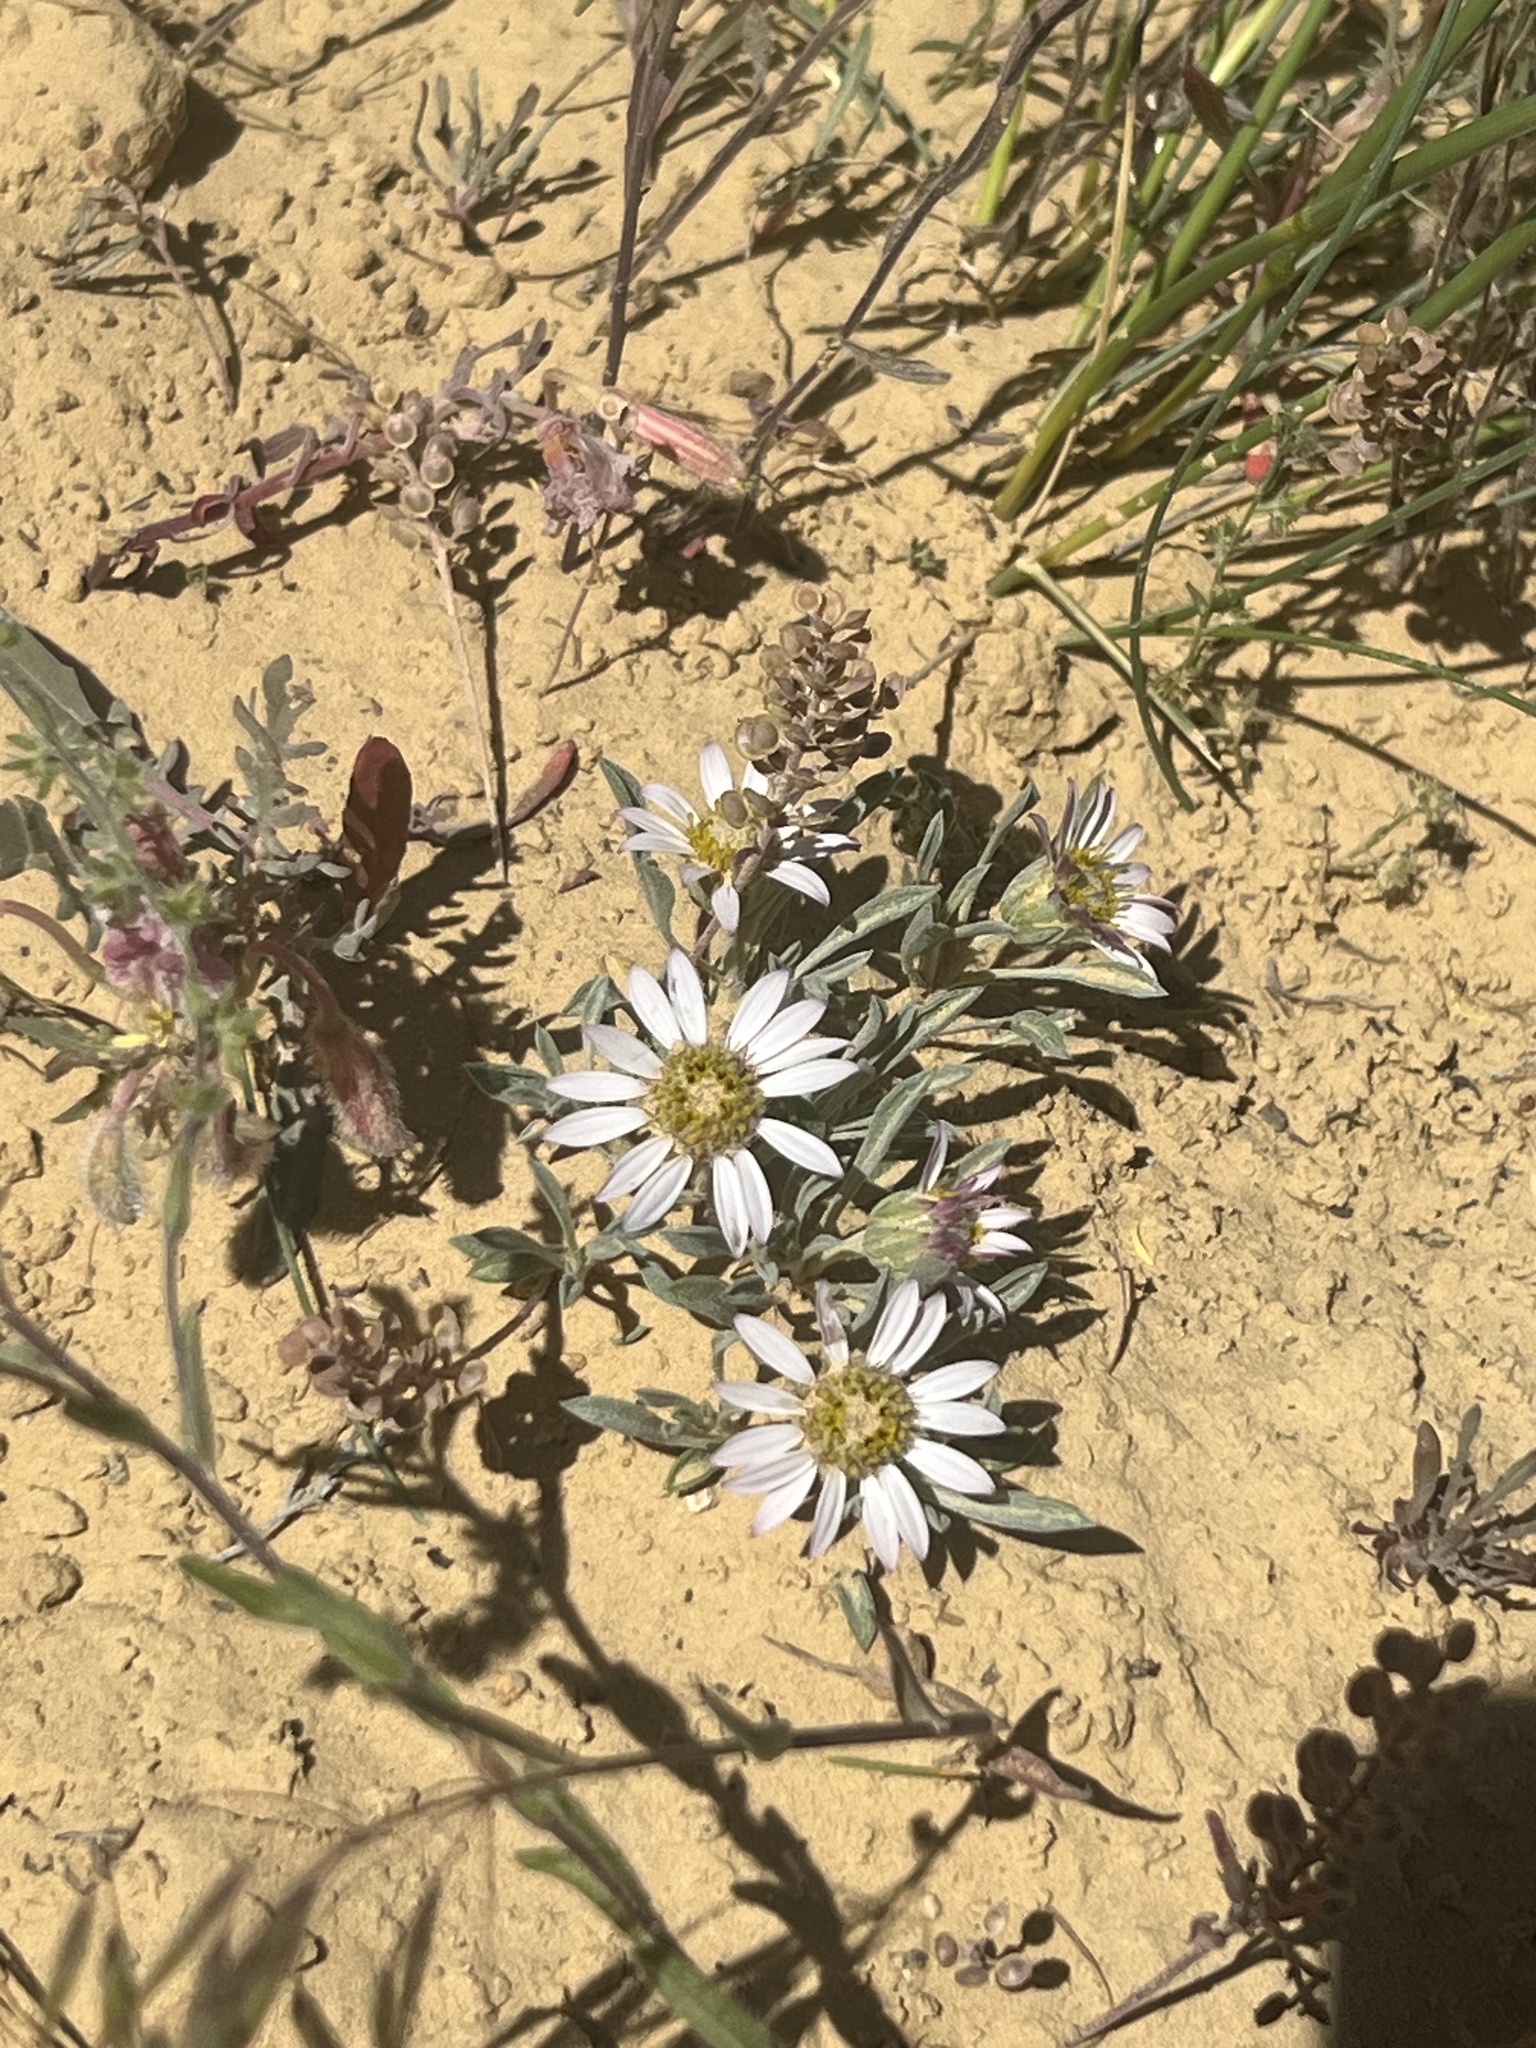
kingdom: Plantae
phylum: Tracheophyta
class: Magnoliopsida
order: Asterales
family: Asteraceae
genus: Townsendia
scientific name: Townsendia incana
